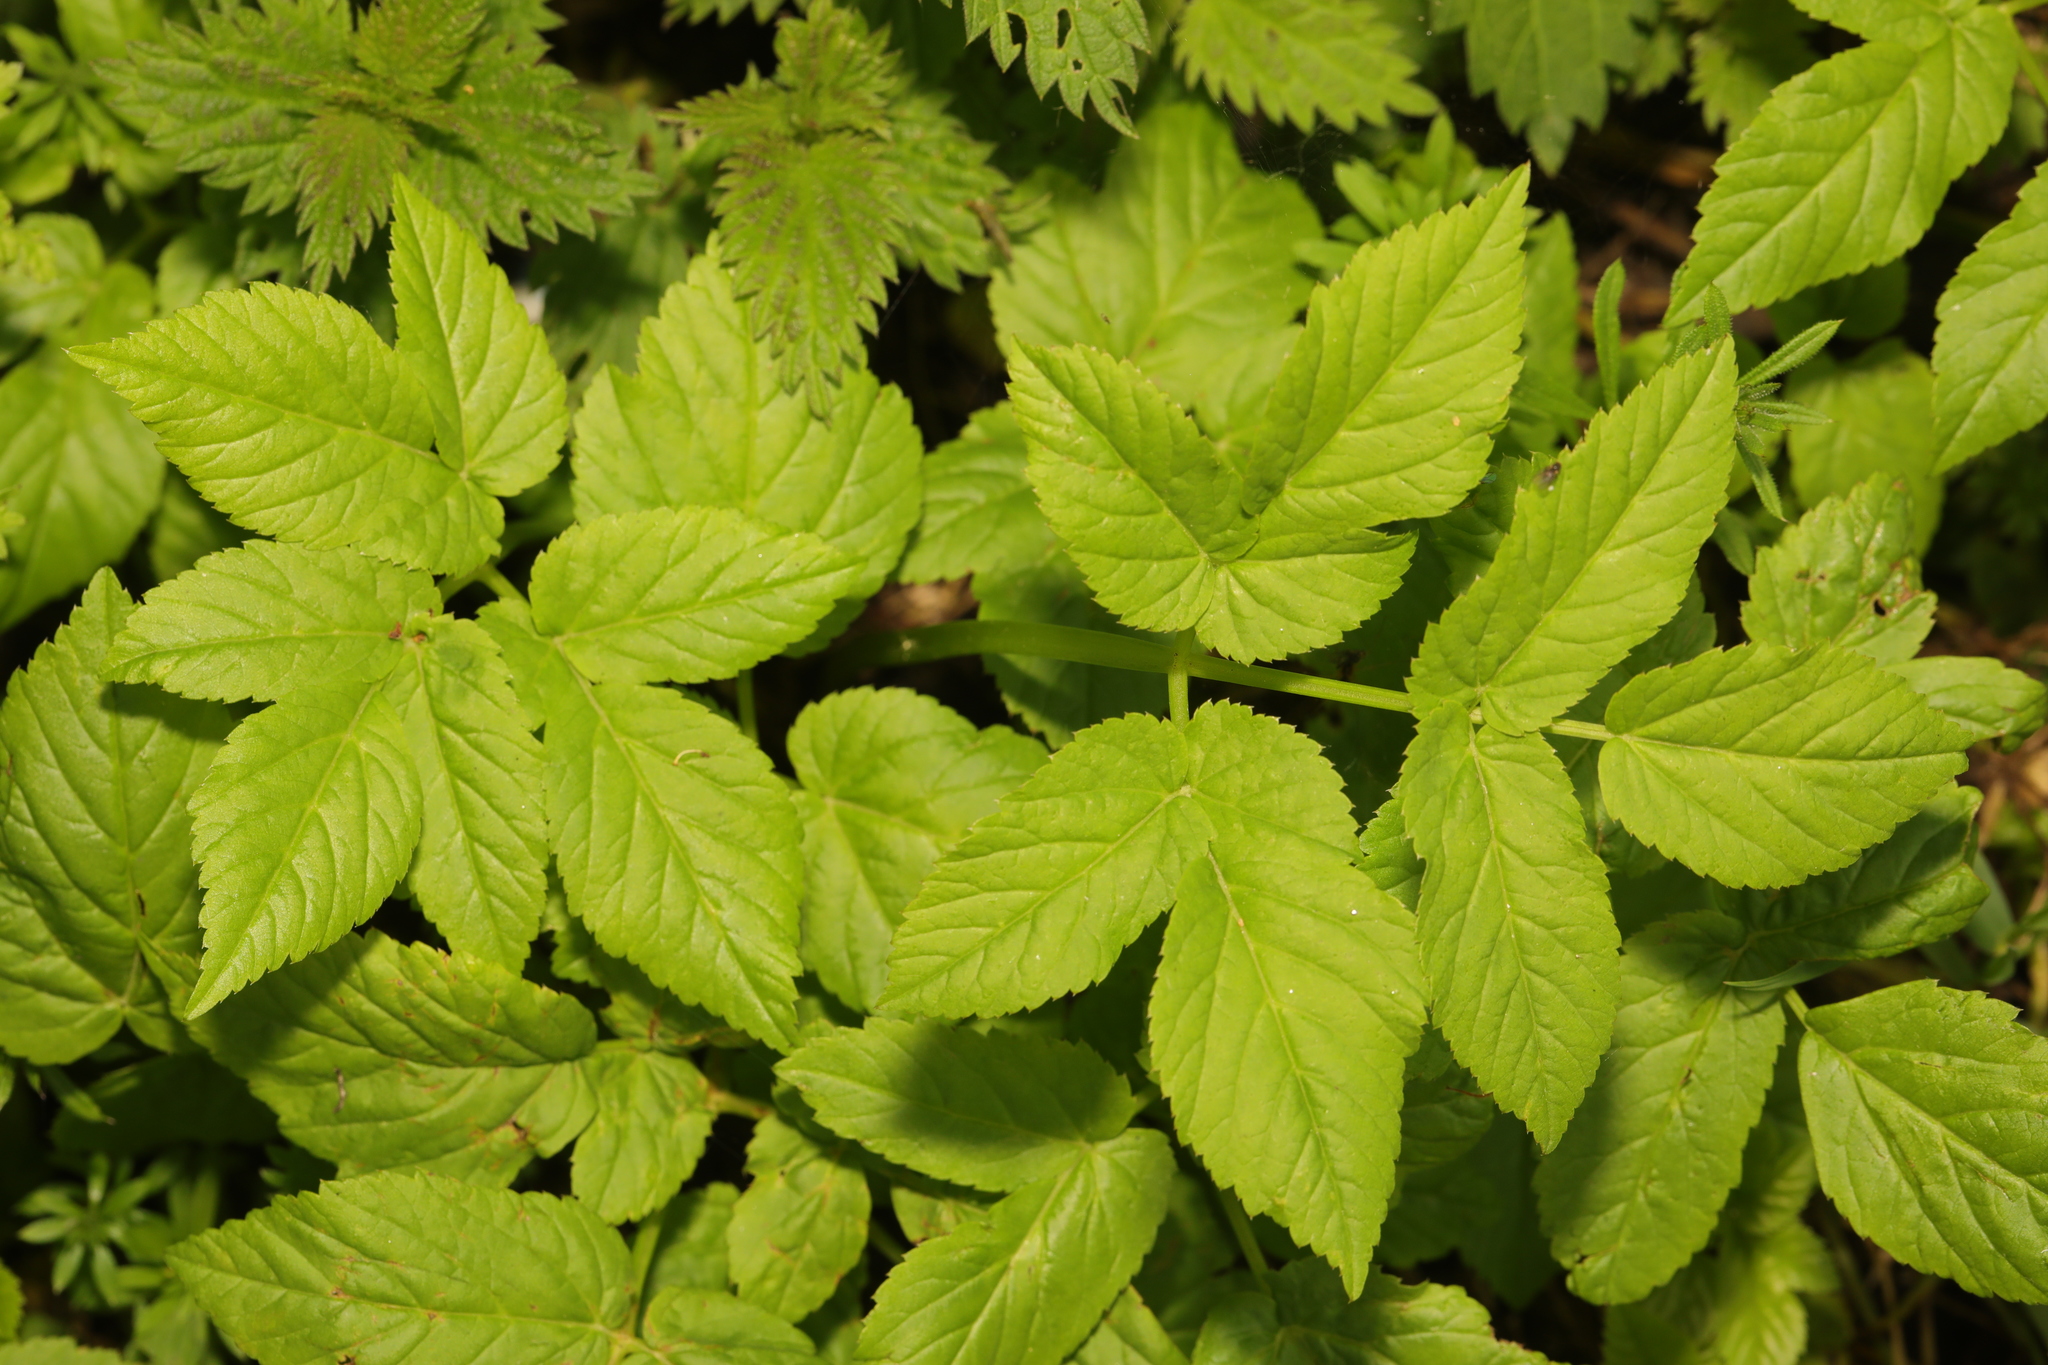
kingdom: Plantae
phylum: Tracheophyta
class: Magnoliopsida
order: Apiales
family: Apiaceae
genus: Aegopodium
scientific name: Aegopodium podagraria
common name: Ground-elder
